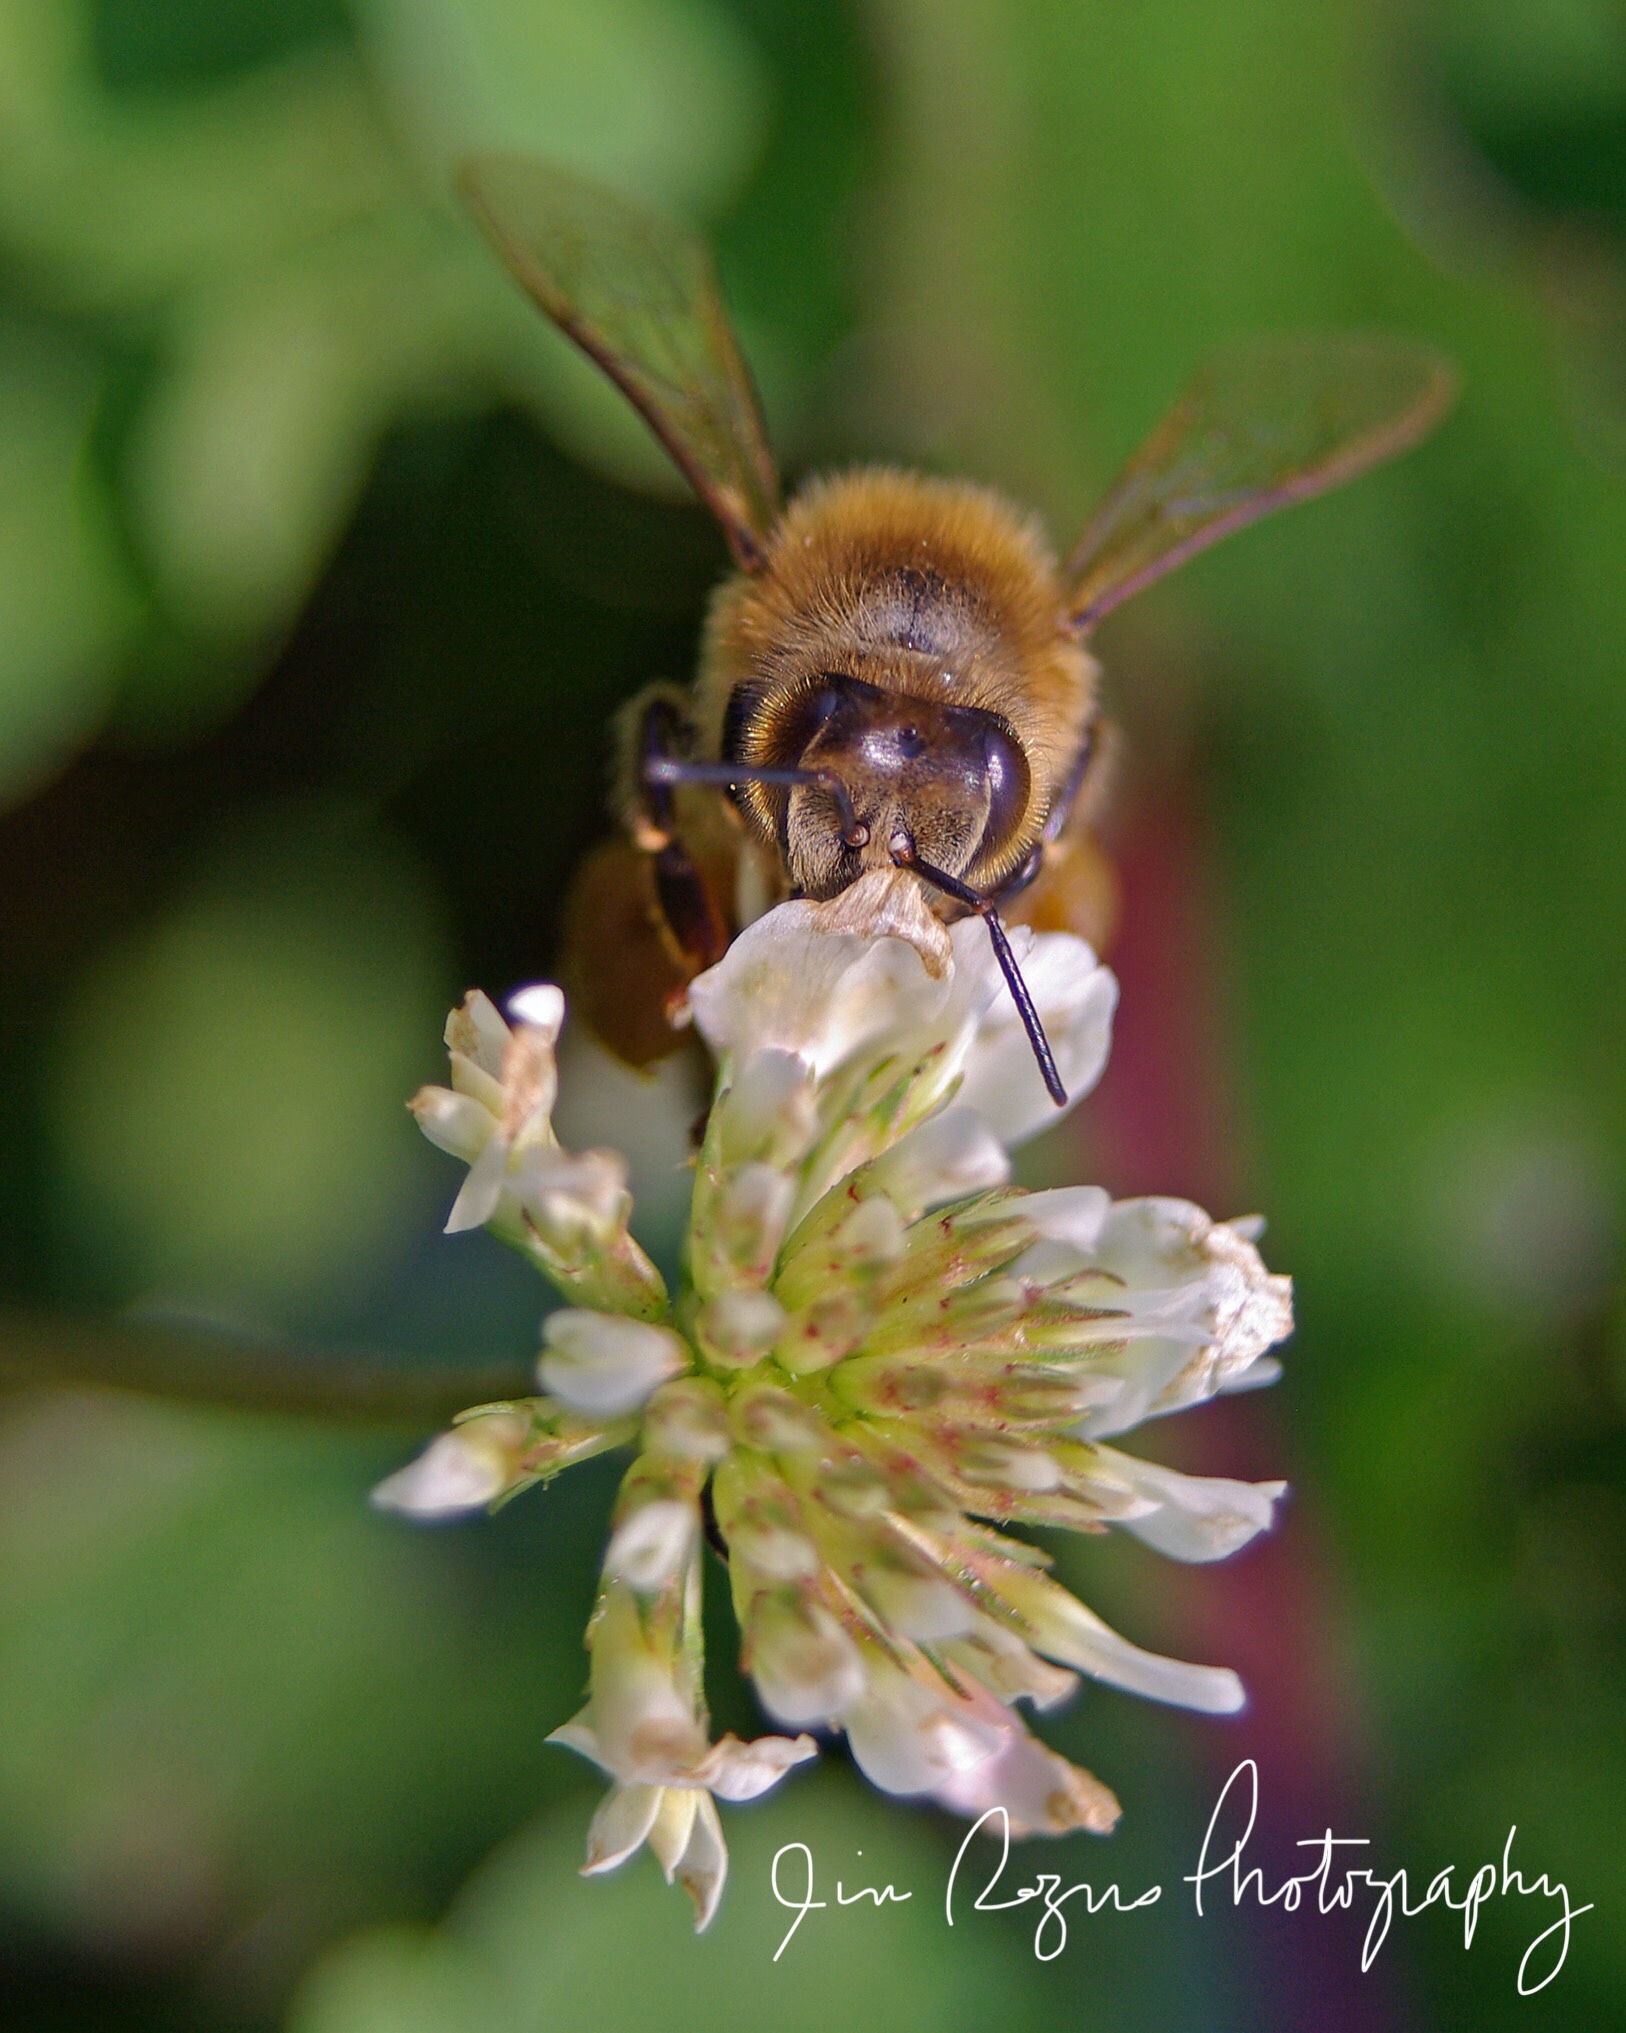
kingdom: Animalia
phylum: Arthropoda
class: Insecta
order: Hymenoptera
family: Apidae
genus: Apis
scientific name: Apis mellifera
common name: Honey bee
